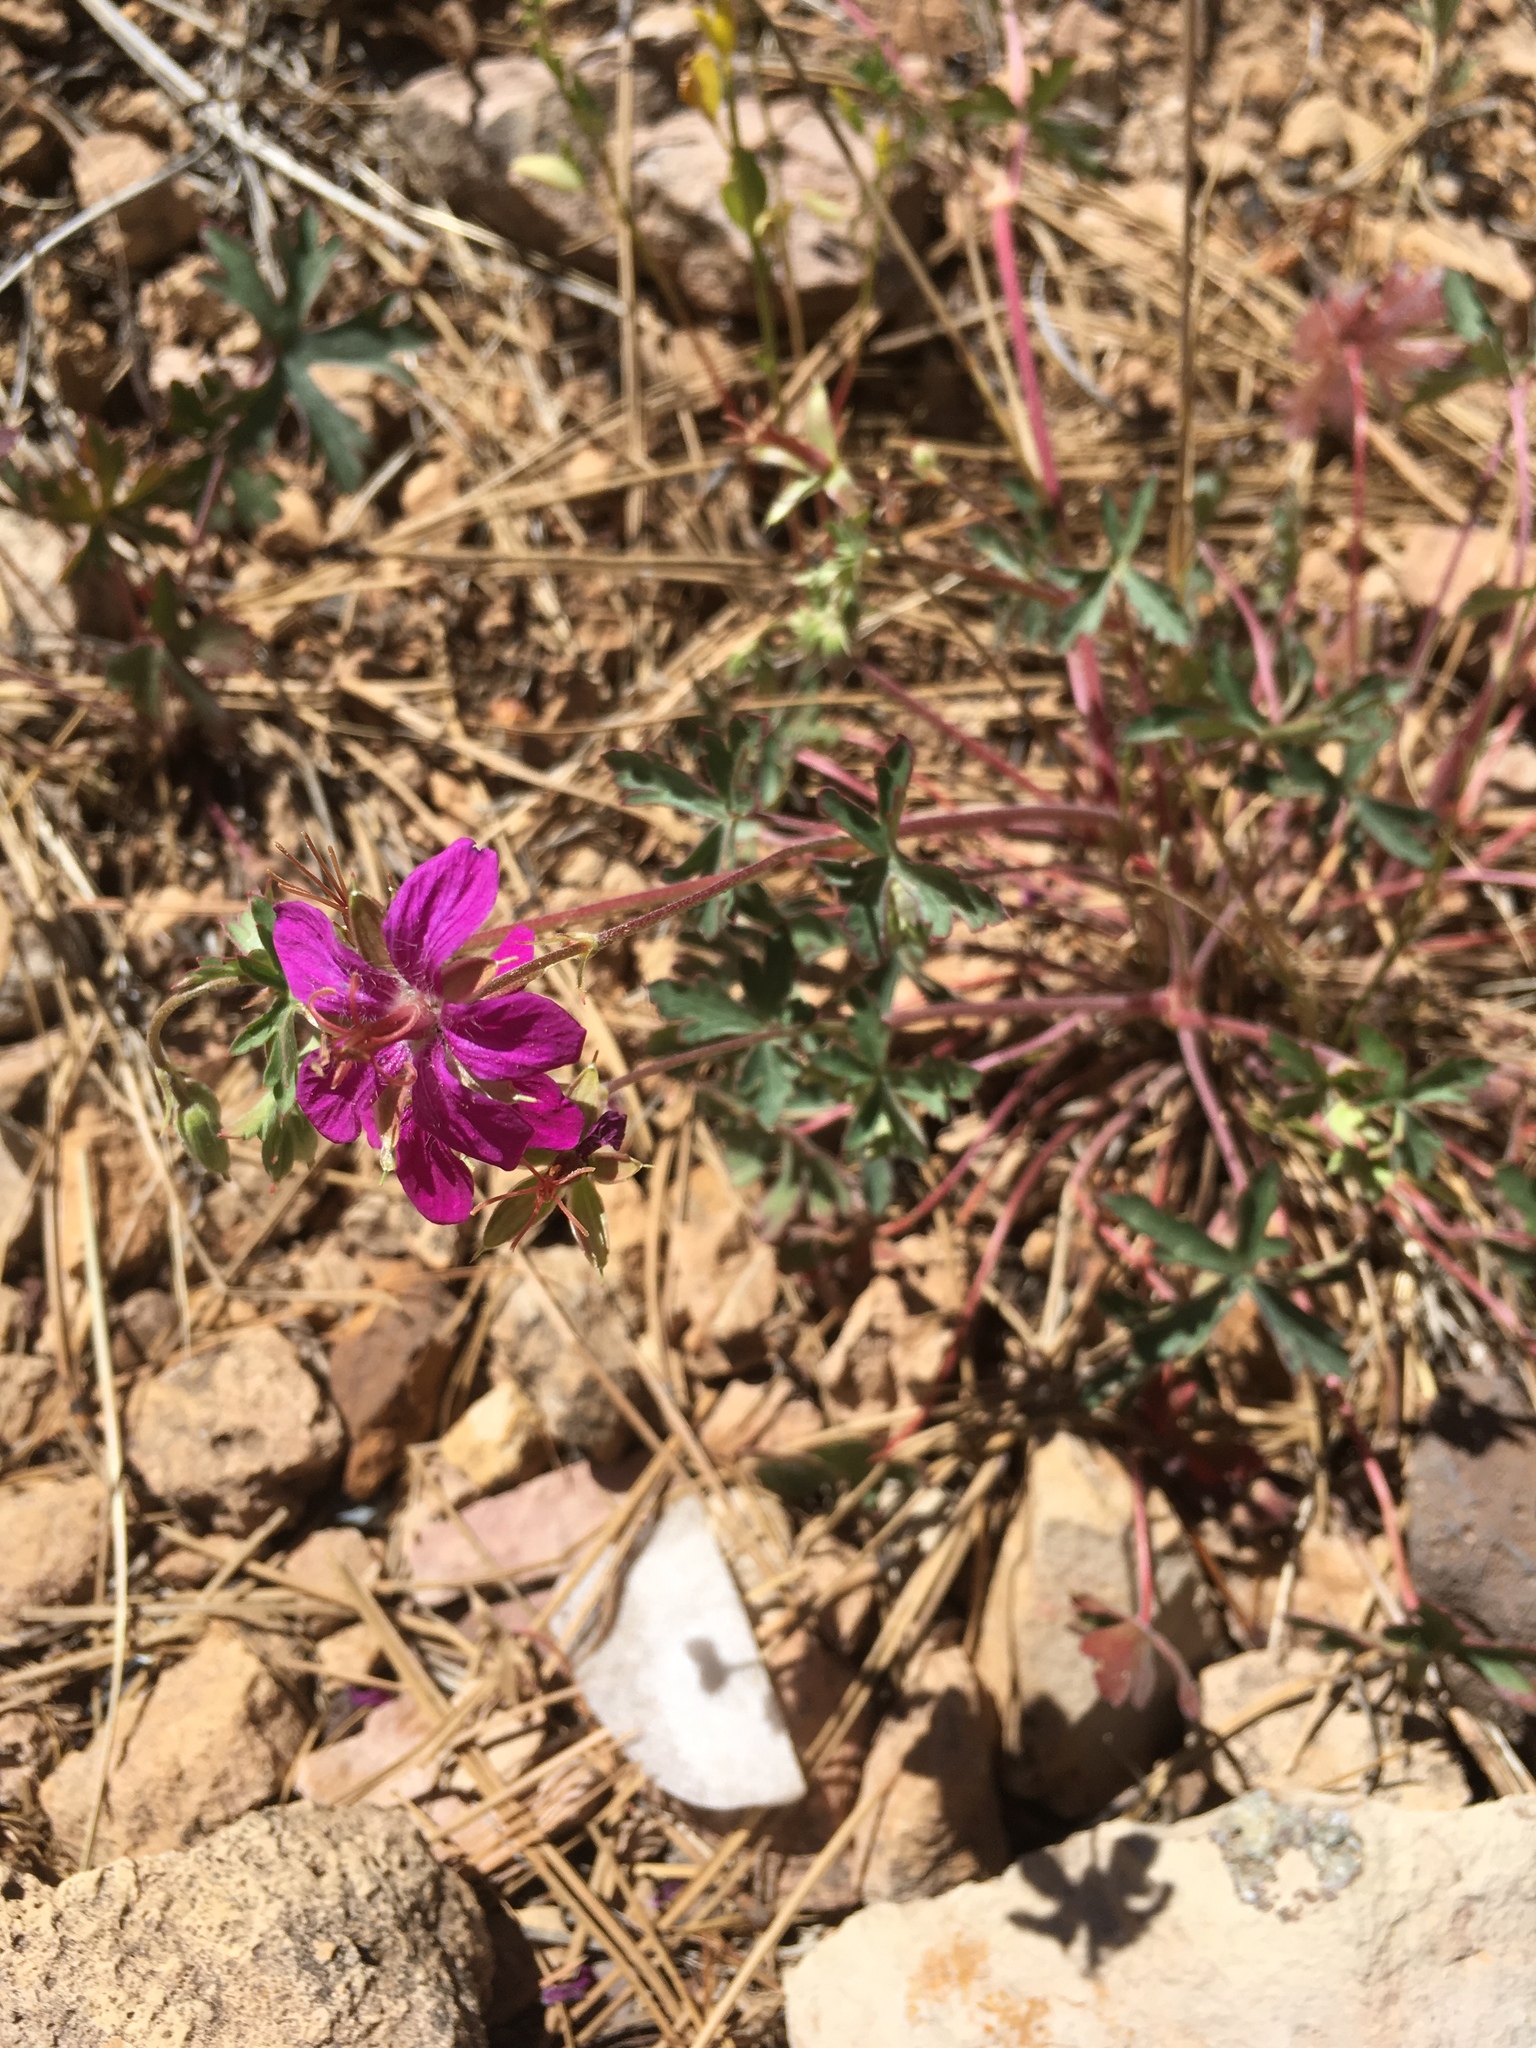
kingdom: Plantae
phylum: Tracheophyta
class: Magnoliopsida
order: Geraniales
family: Geraniaceae
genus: Geranium
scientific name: Geranium caespitosum
